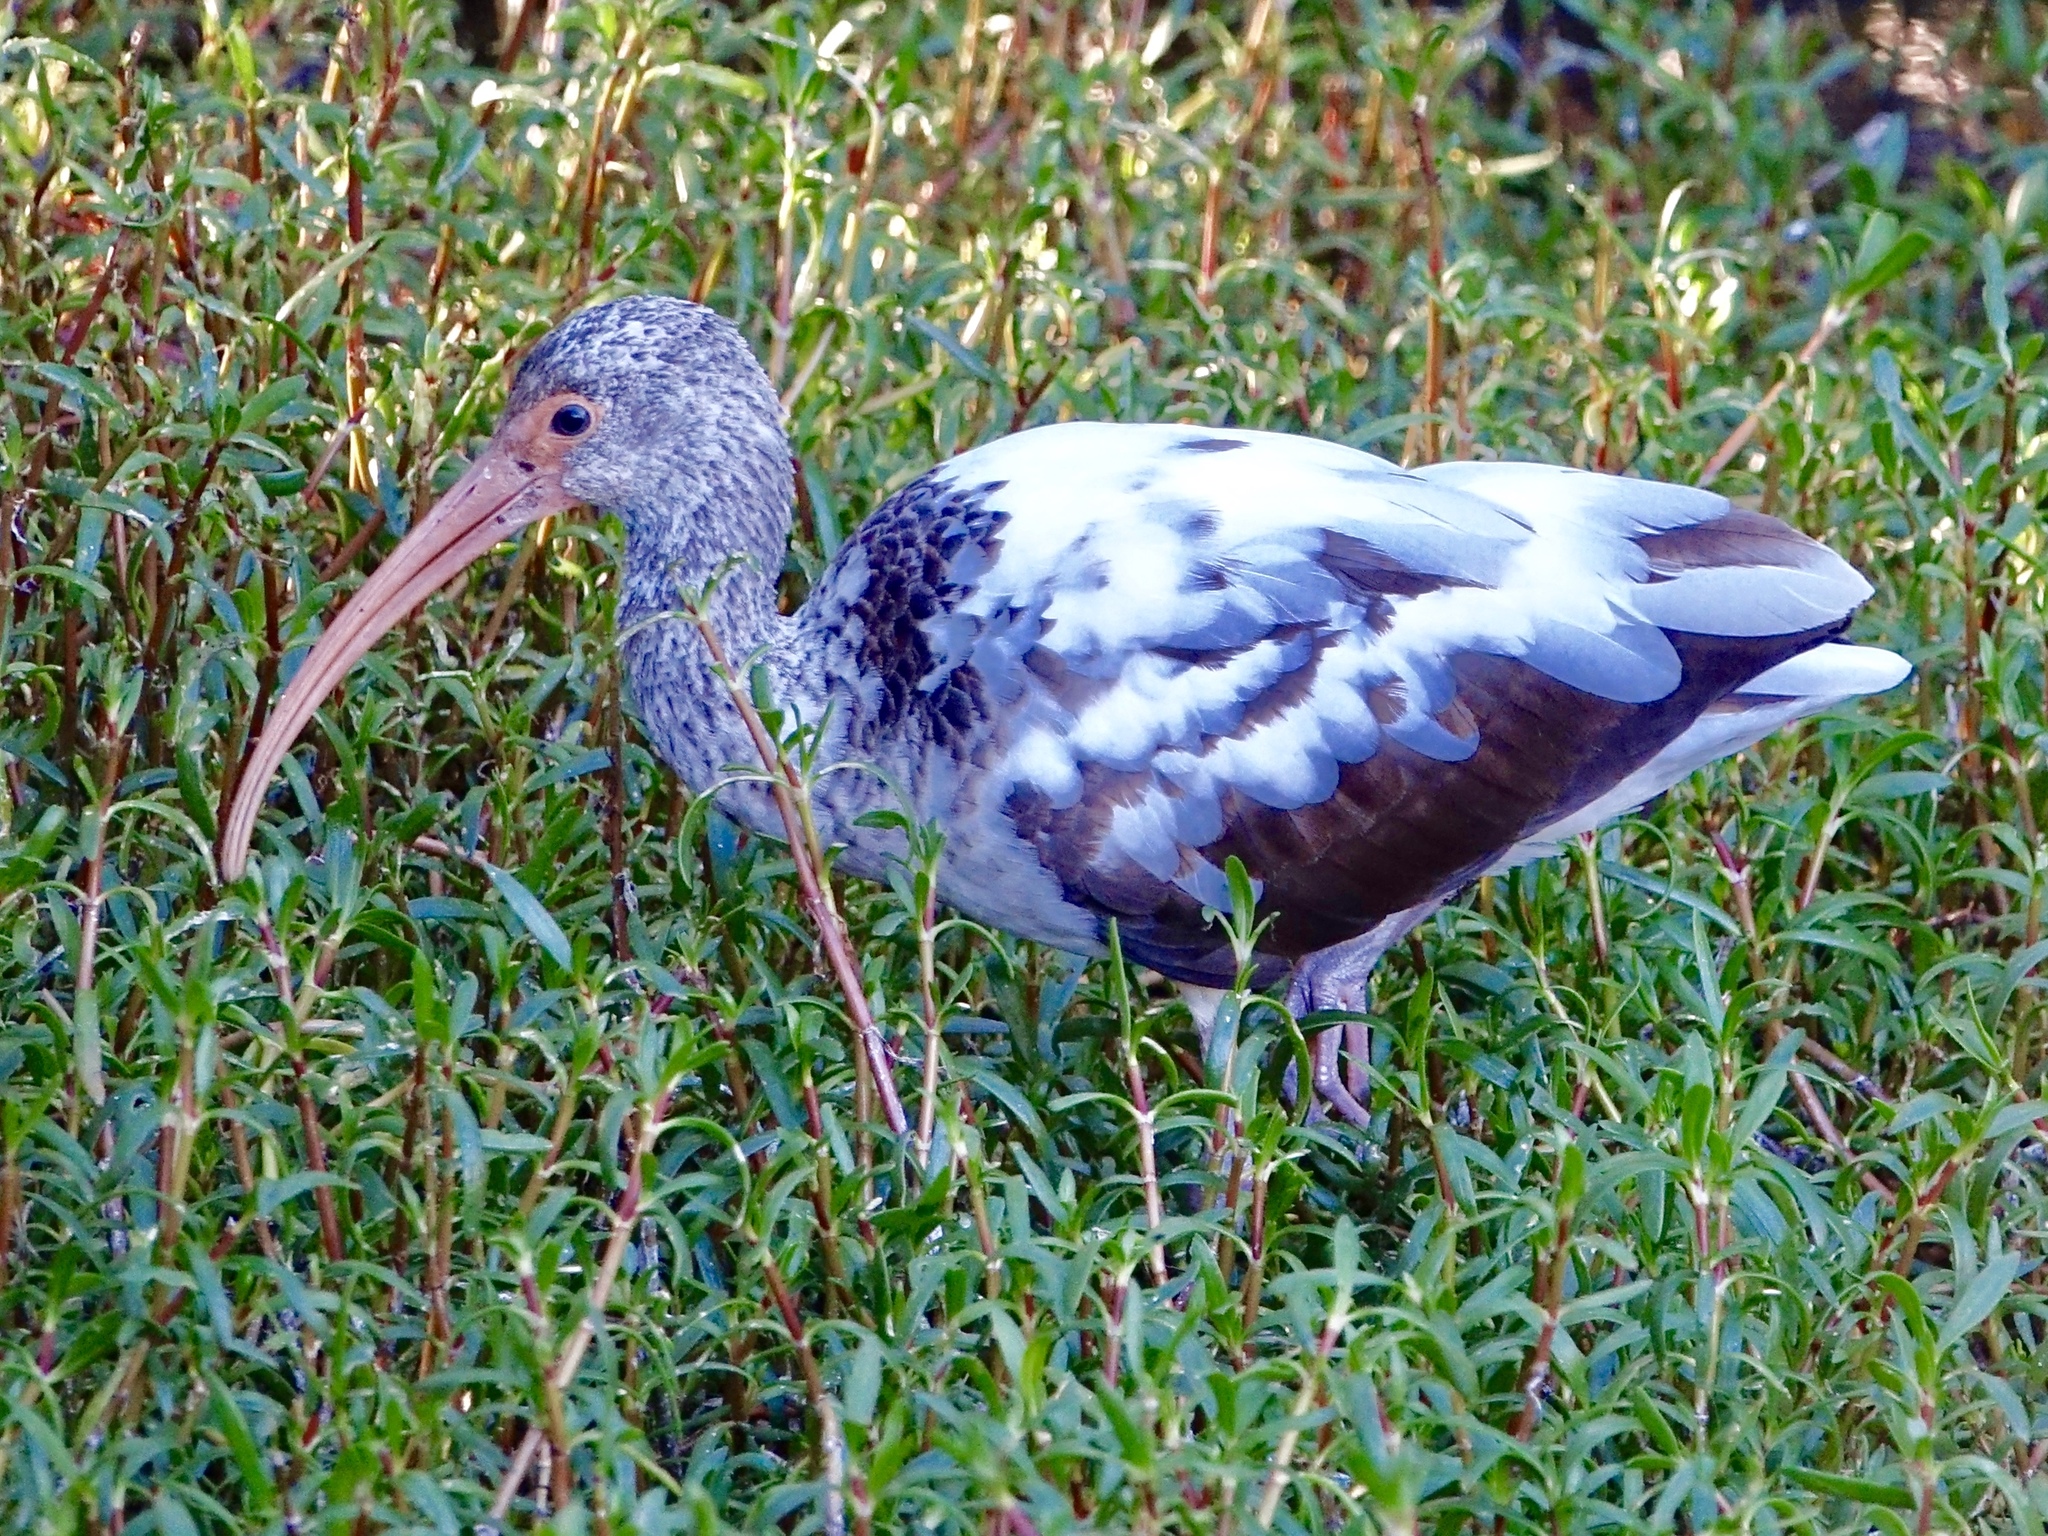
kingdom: Animalia
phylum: Chordata
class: Aves
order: Pelecaniformes
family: Threskiornithidae
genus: Eudocimus
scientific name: Eudocimus albus
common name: White ibis
